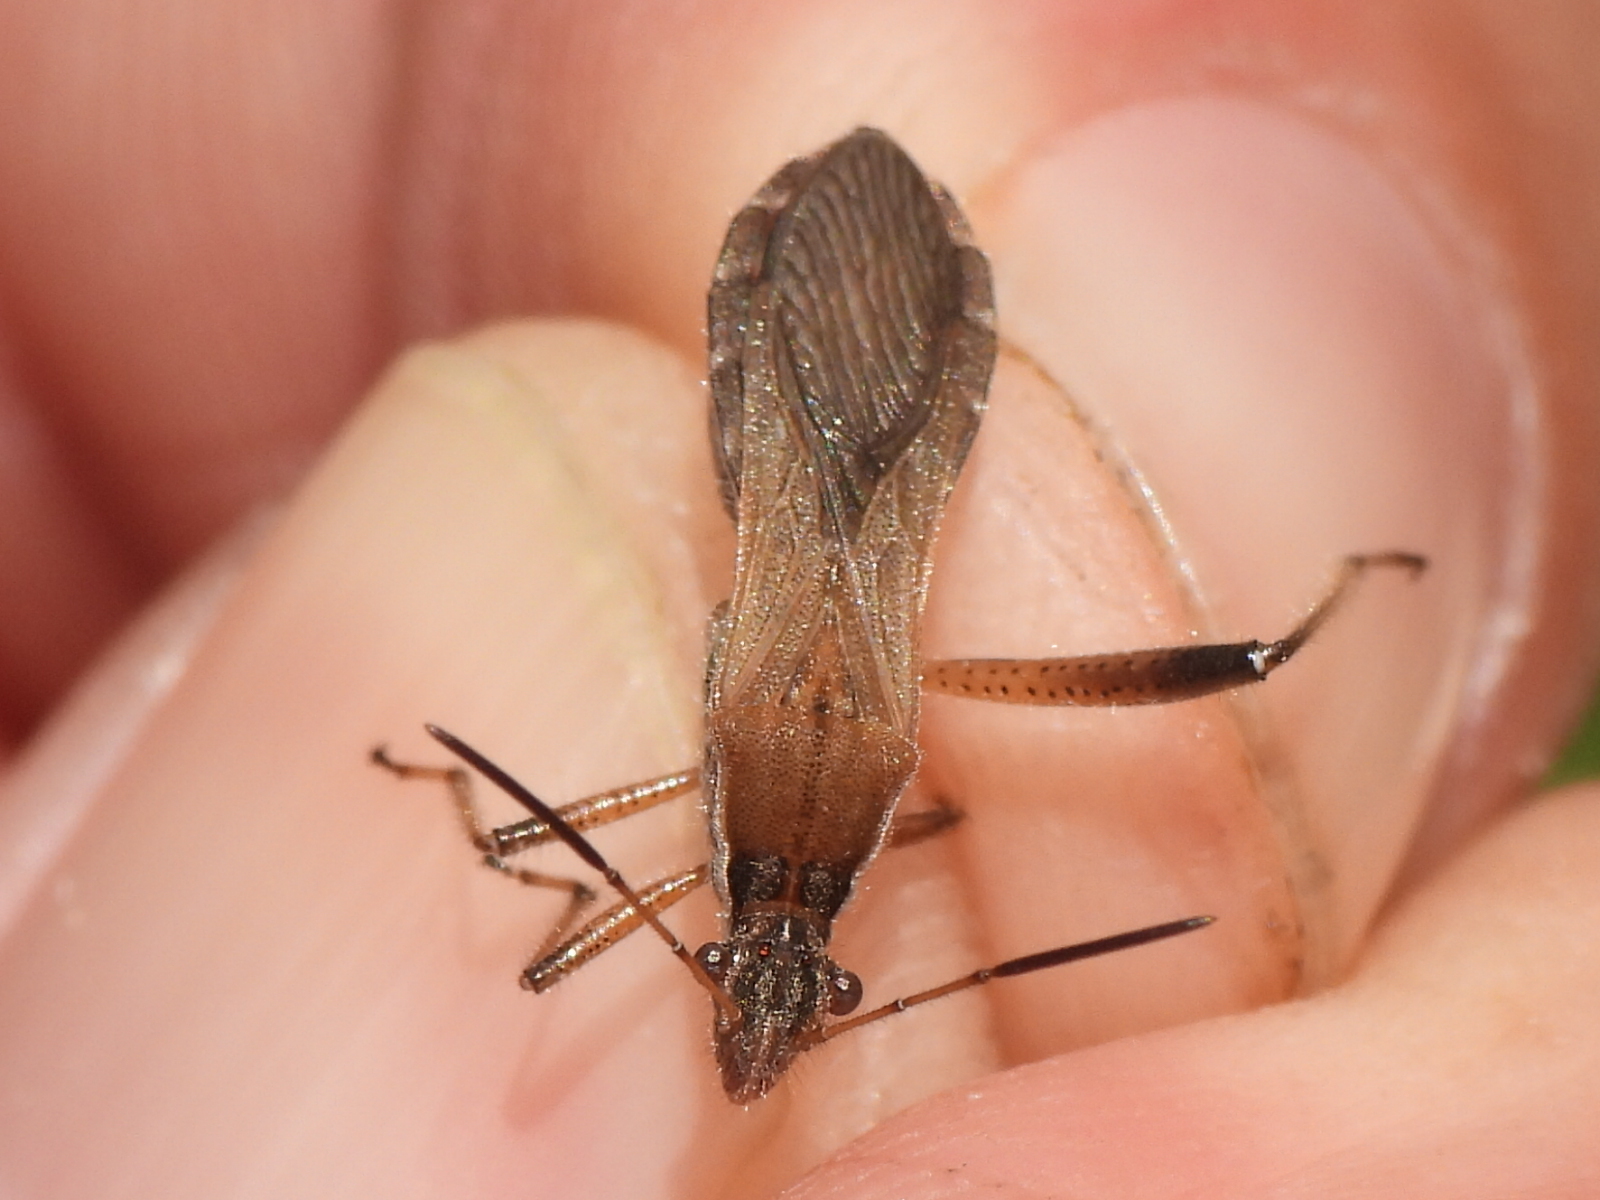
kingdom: Animalia
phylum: Arthropoda
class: Insecta
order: Hemiptera
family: Alydidae
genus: Alydus
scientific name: Alydus pilosulus
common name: Broad-headed bug
